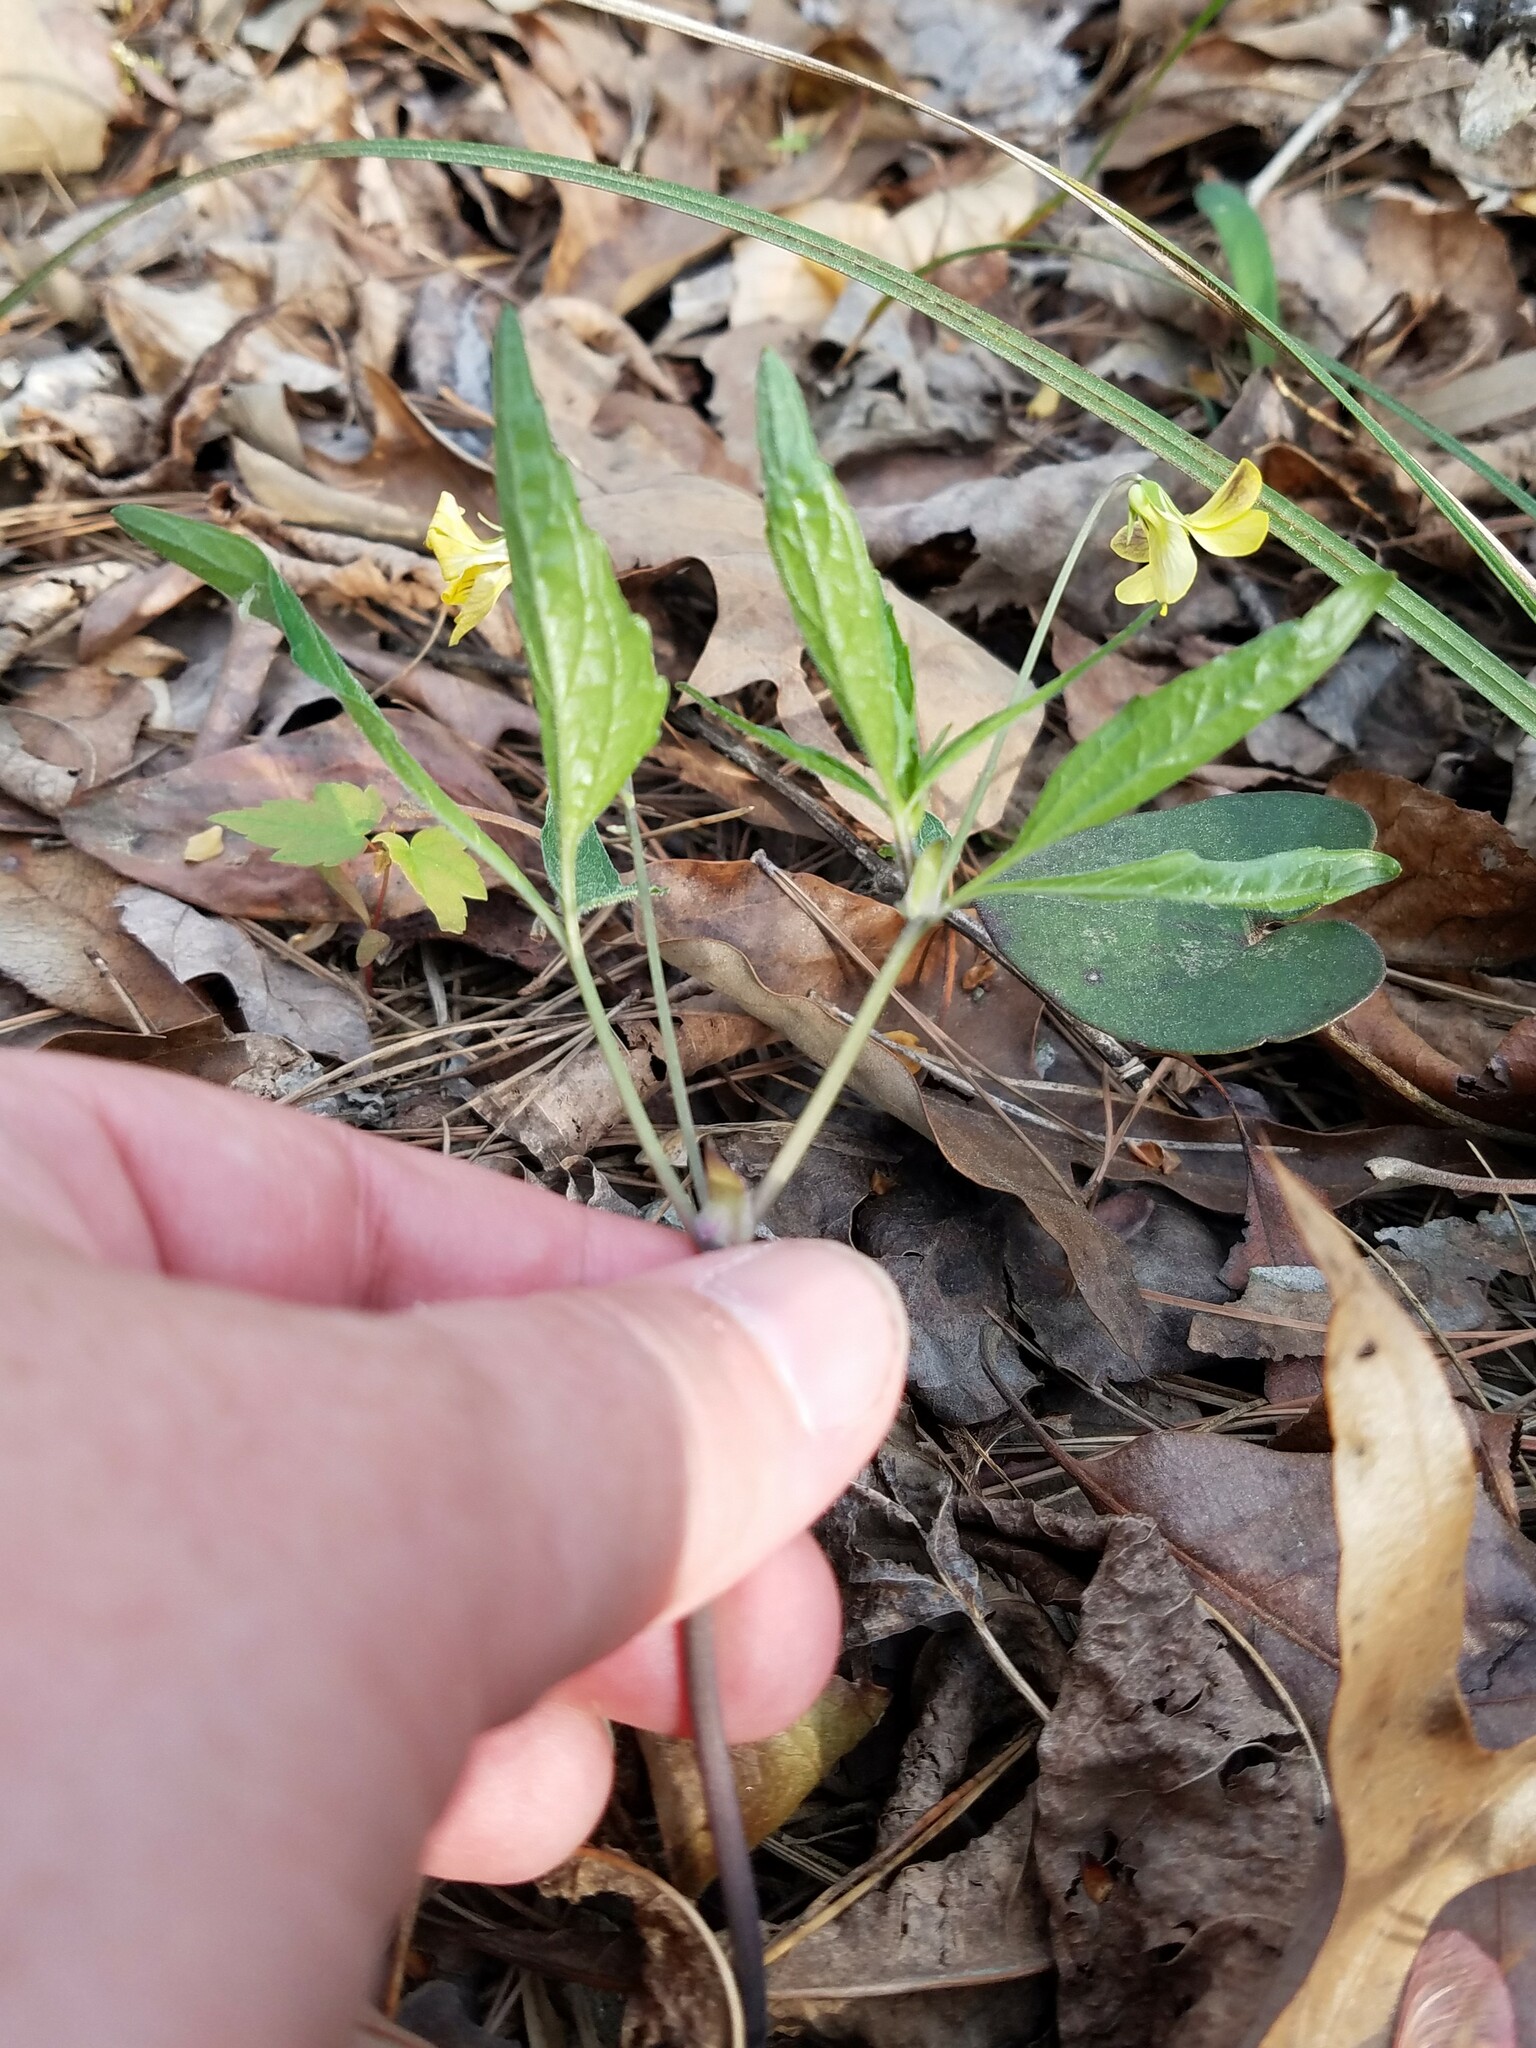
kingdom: Plantae
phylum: Tracheophyta
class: Magnoliopsida
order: Malpighiales
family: Violaceae
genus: Viola
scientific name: Viola tripartita
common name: Three-part violet
